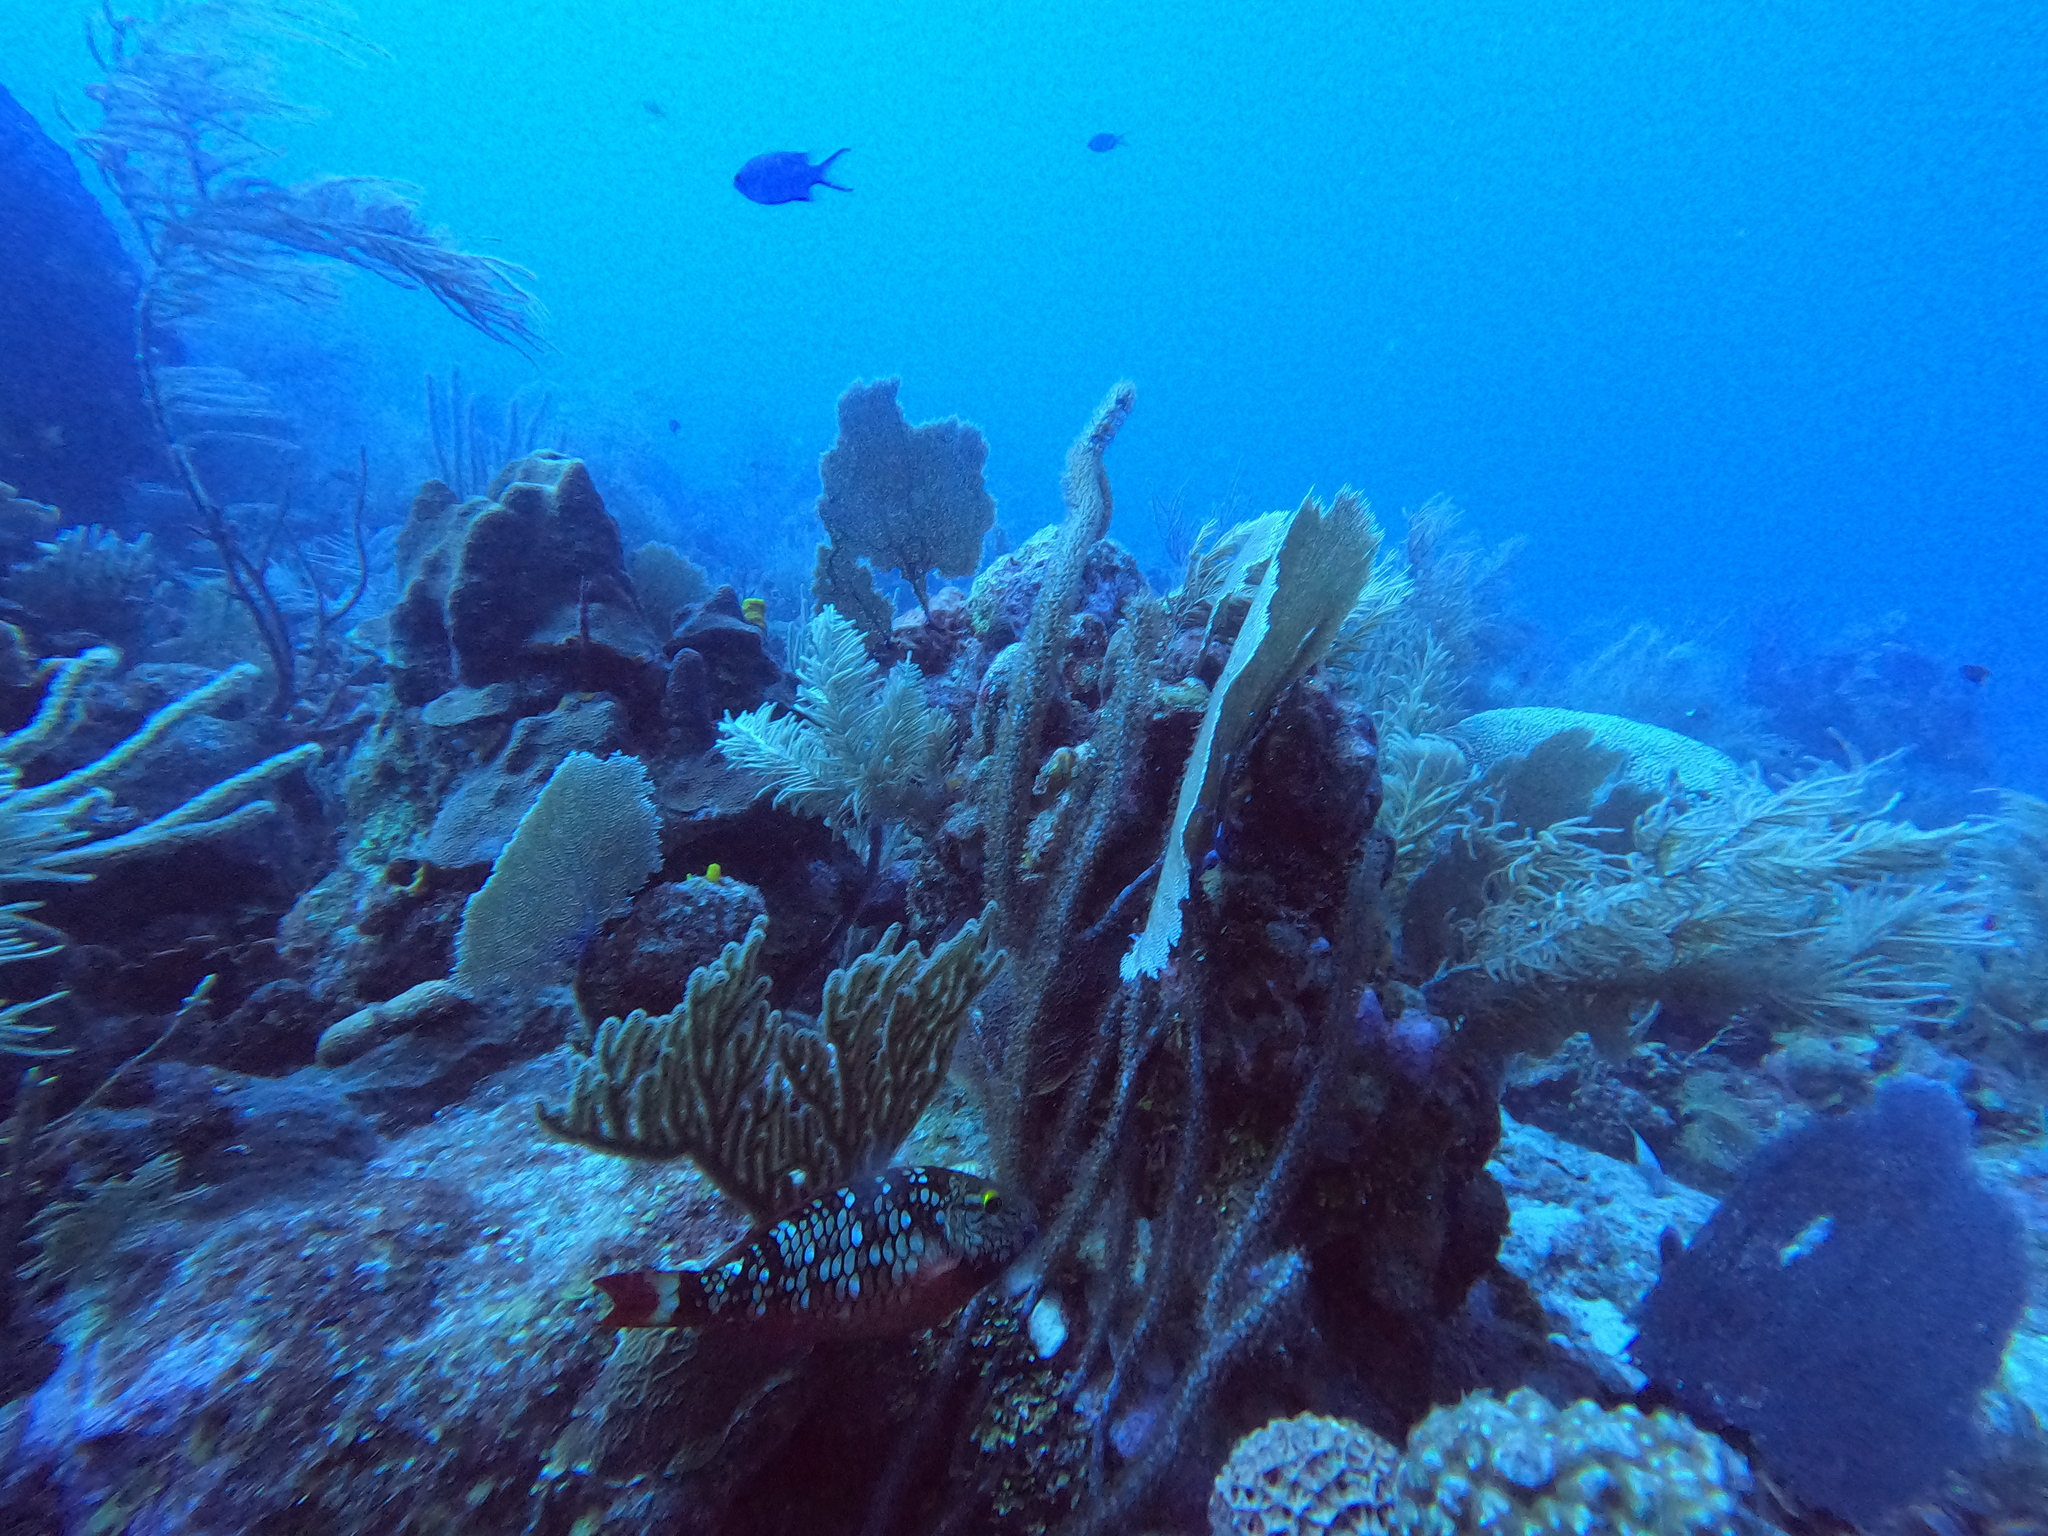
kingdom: Animalia
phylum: Chordata
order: Perciformes
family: Scaridae
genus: Sparisoma
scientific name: Sparisoma viride
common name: Stoplight parrotfish
